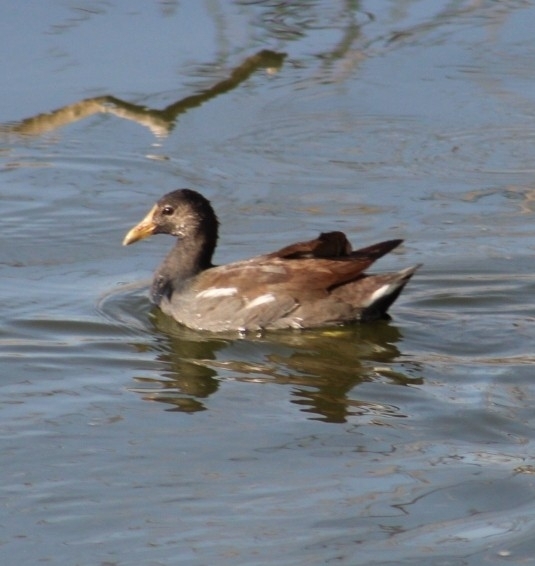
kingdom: Animalia
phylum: Chordata
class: Aves
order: Gruiformes
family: Rallidae
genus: Gallinula
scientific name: Gallinula chloropus
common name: Common moorhen
